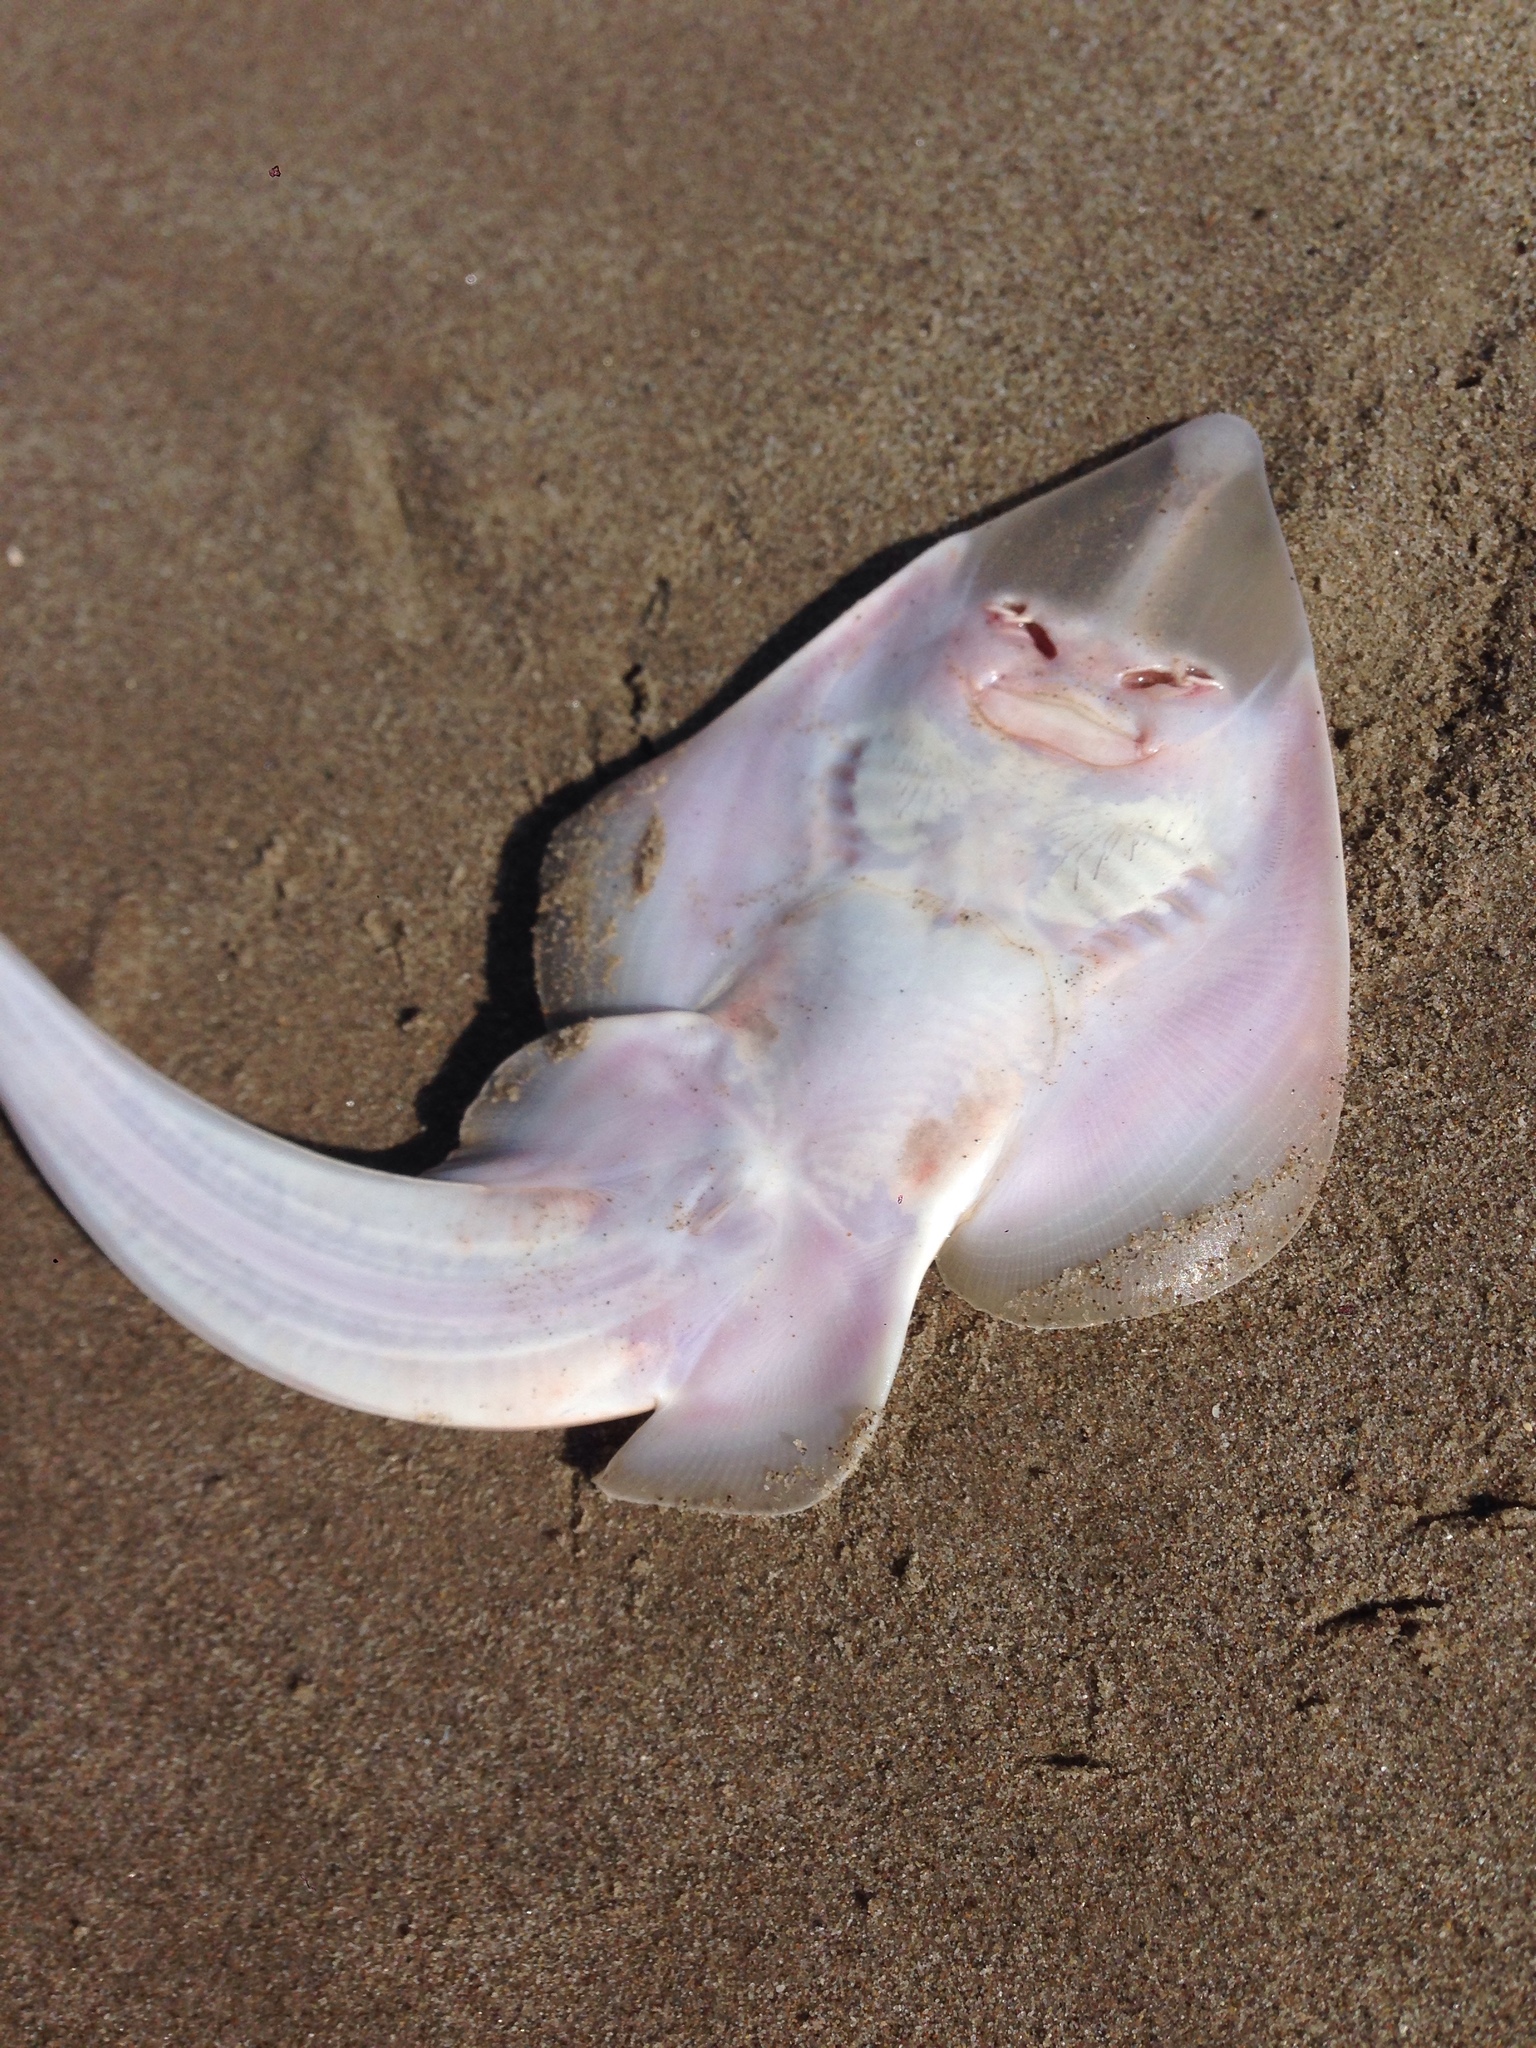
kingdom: Animalia
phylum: Chordata
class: Elasmobranchii
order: Rhinopristiformes
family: Rhinobatidae
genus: Pseudobatos
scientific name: Pseudobatos productus
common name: Shovelnose guitarfish
